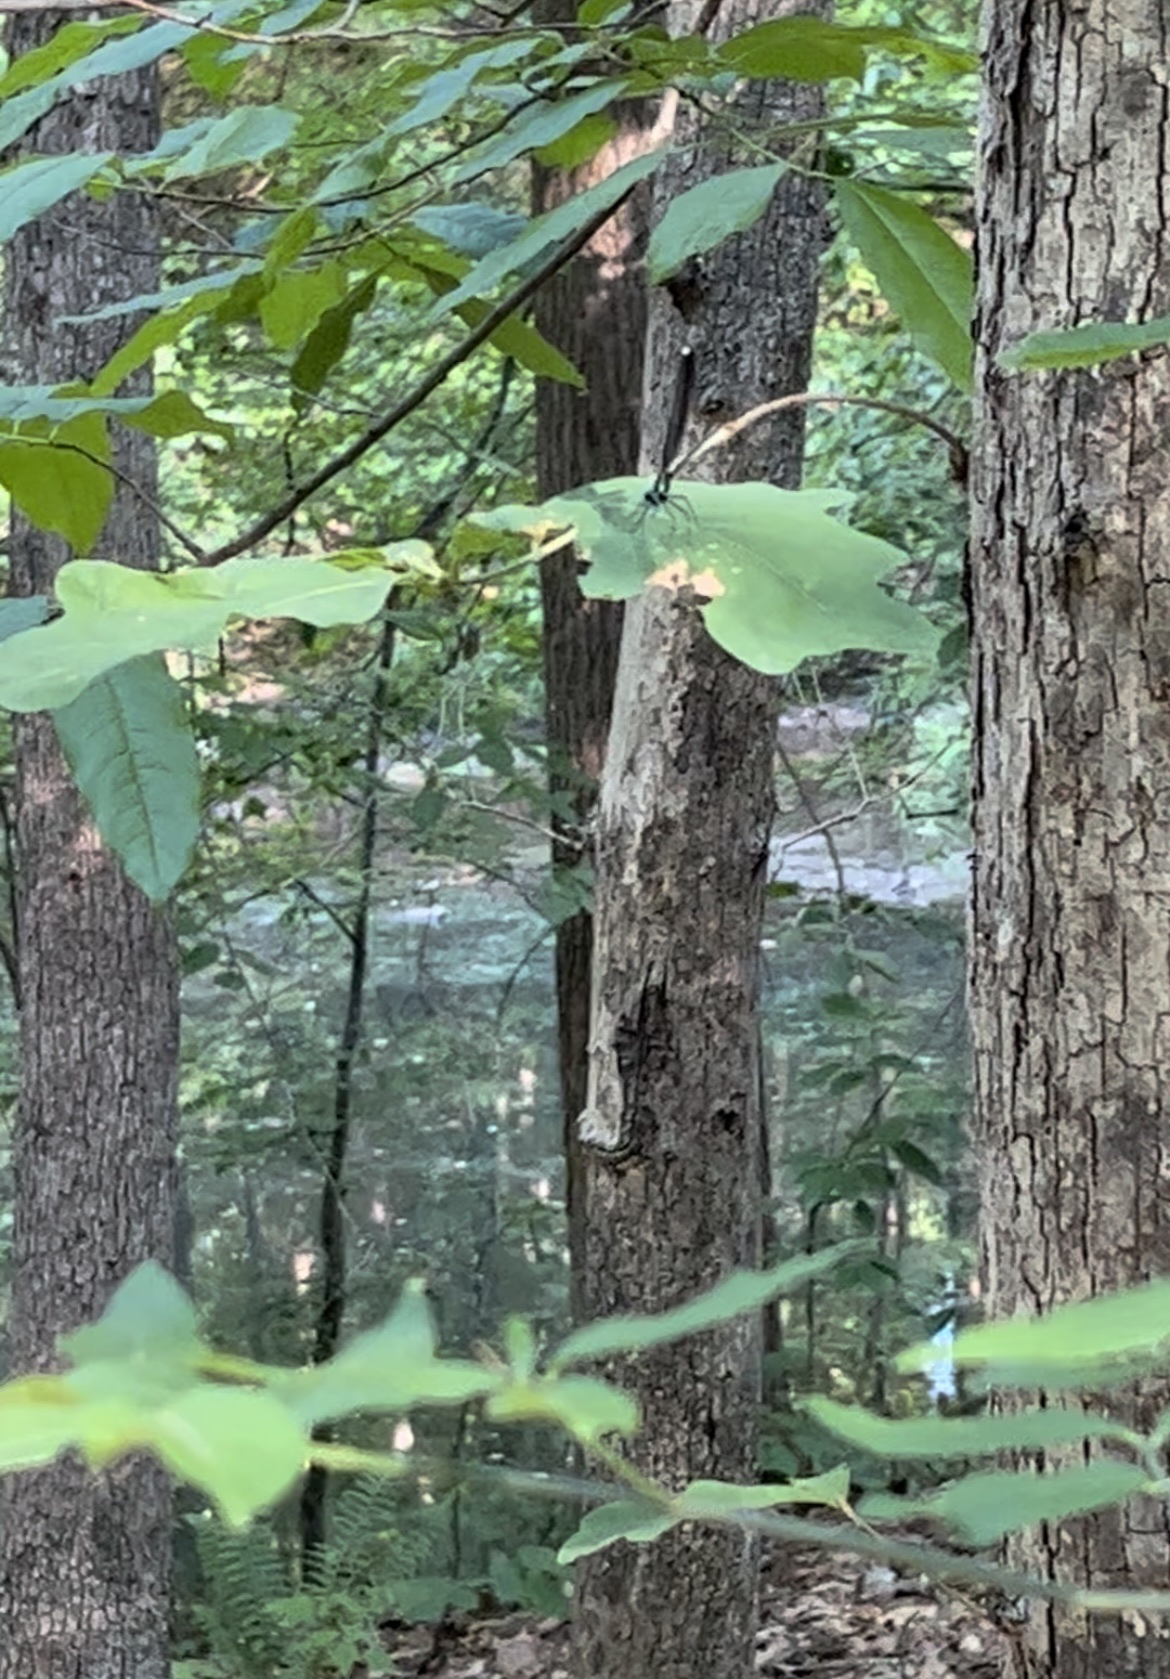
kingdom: Animalia
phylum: Arthropoda
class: Insecta
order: Odonata
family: Calopterygidae
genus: Calopteryx
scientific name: Calopteryx maculata
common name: Ebony jewelwing
